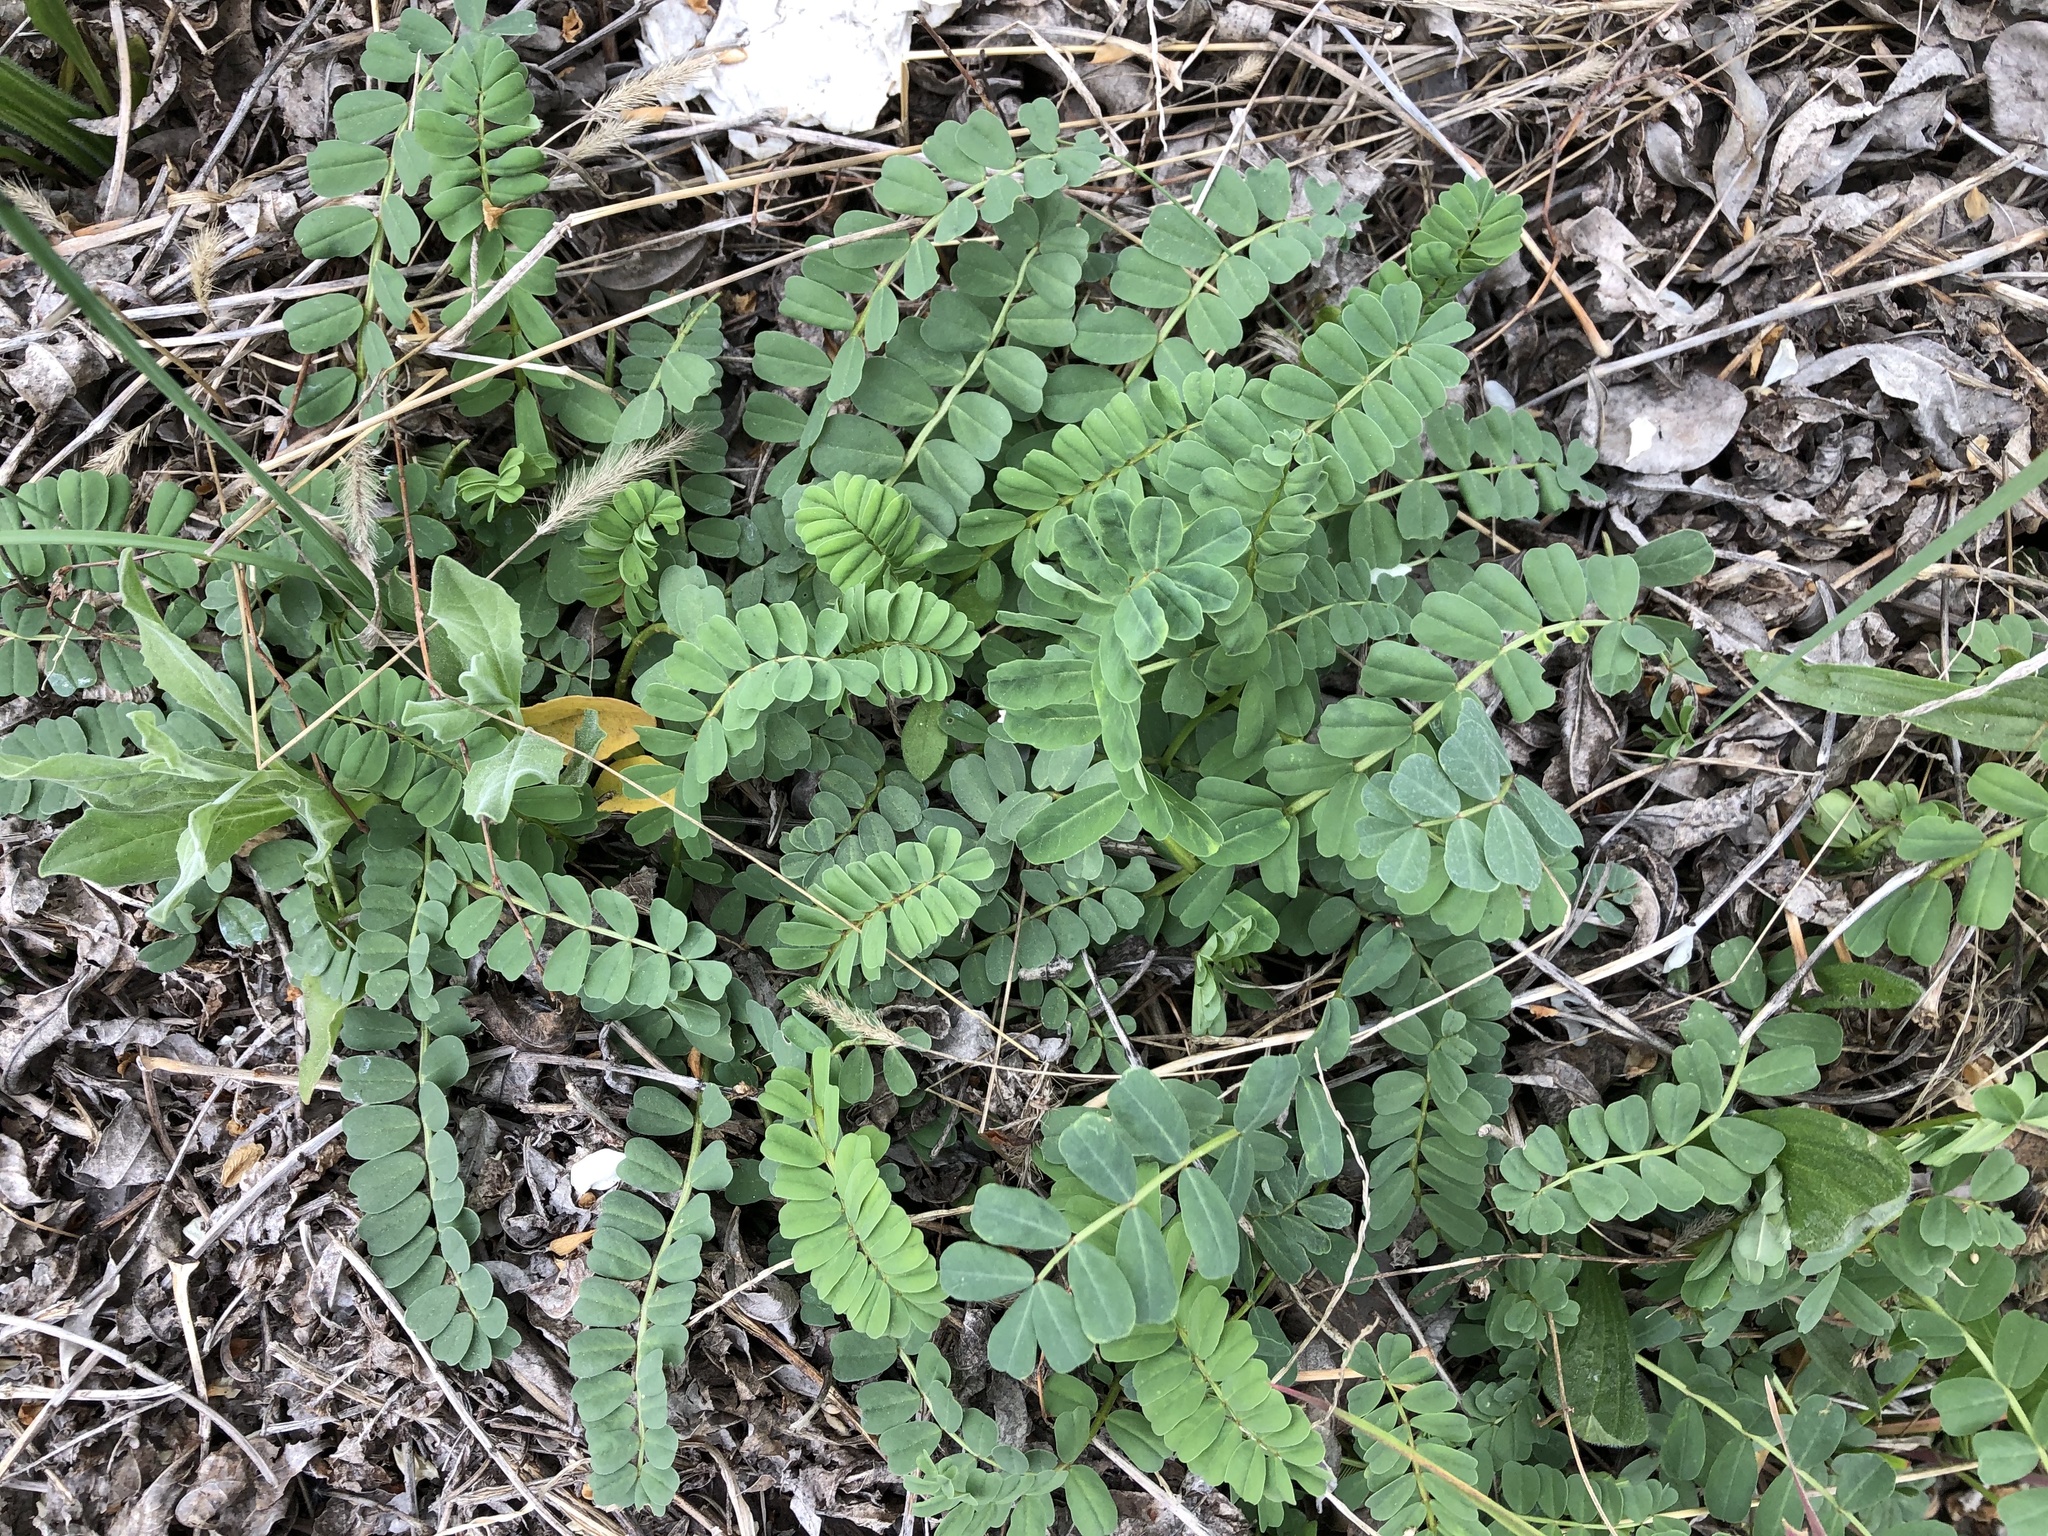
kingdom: Plantae
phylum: Tracheophyta
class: Magnoliopsida
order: Fabales
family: Fabaceae
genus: Coronilla
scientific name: Coronilla varia
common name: Crownvetch
